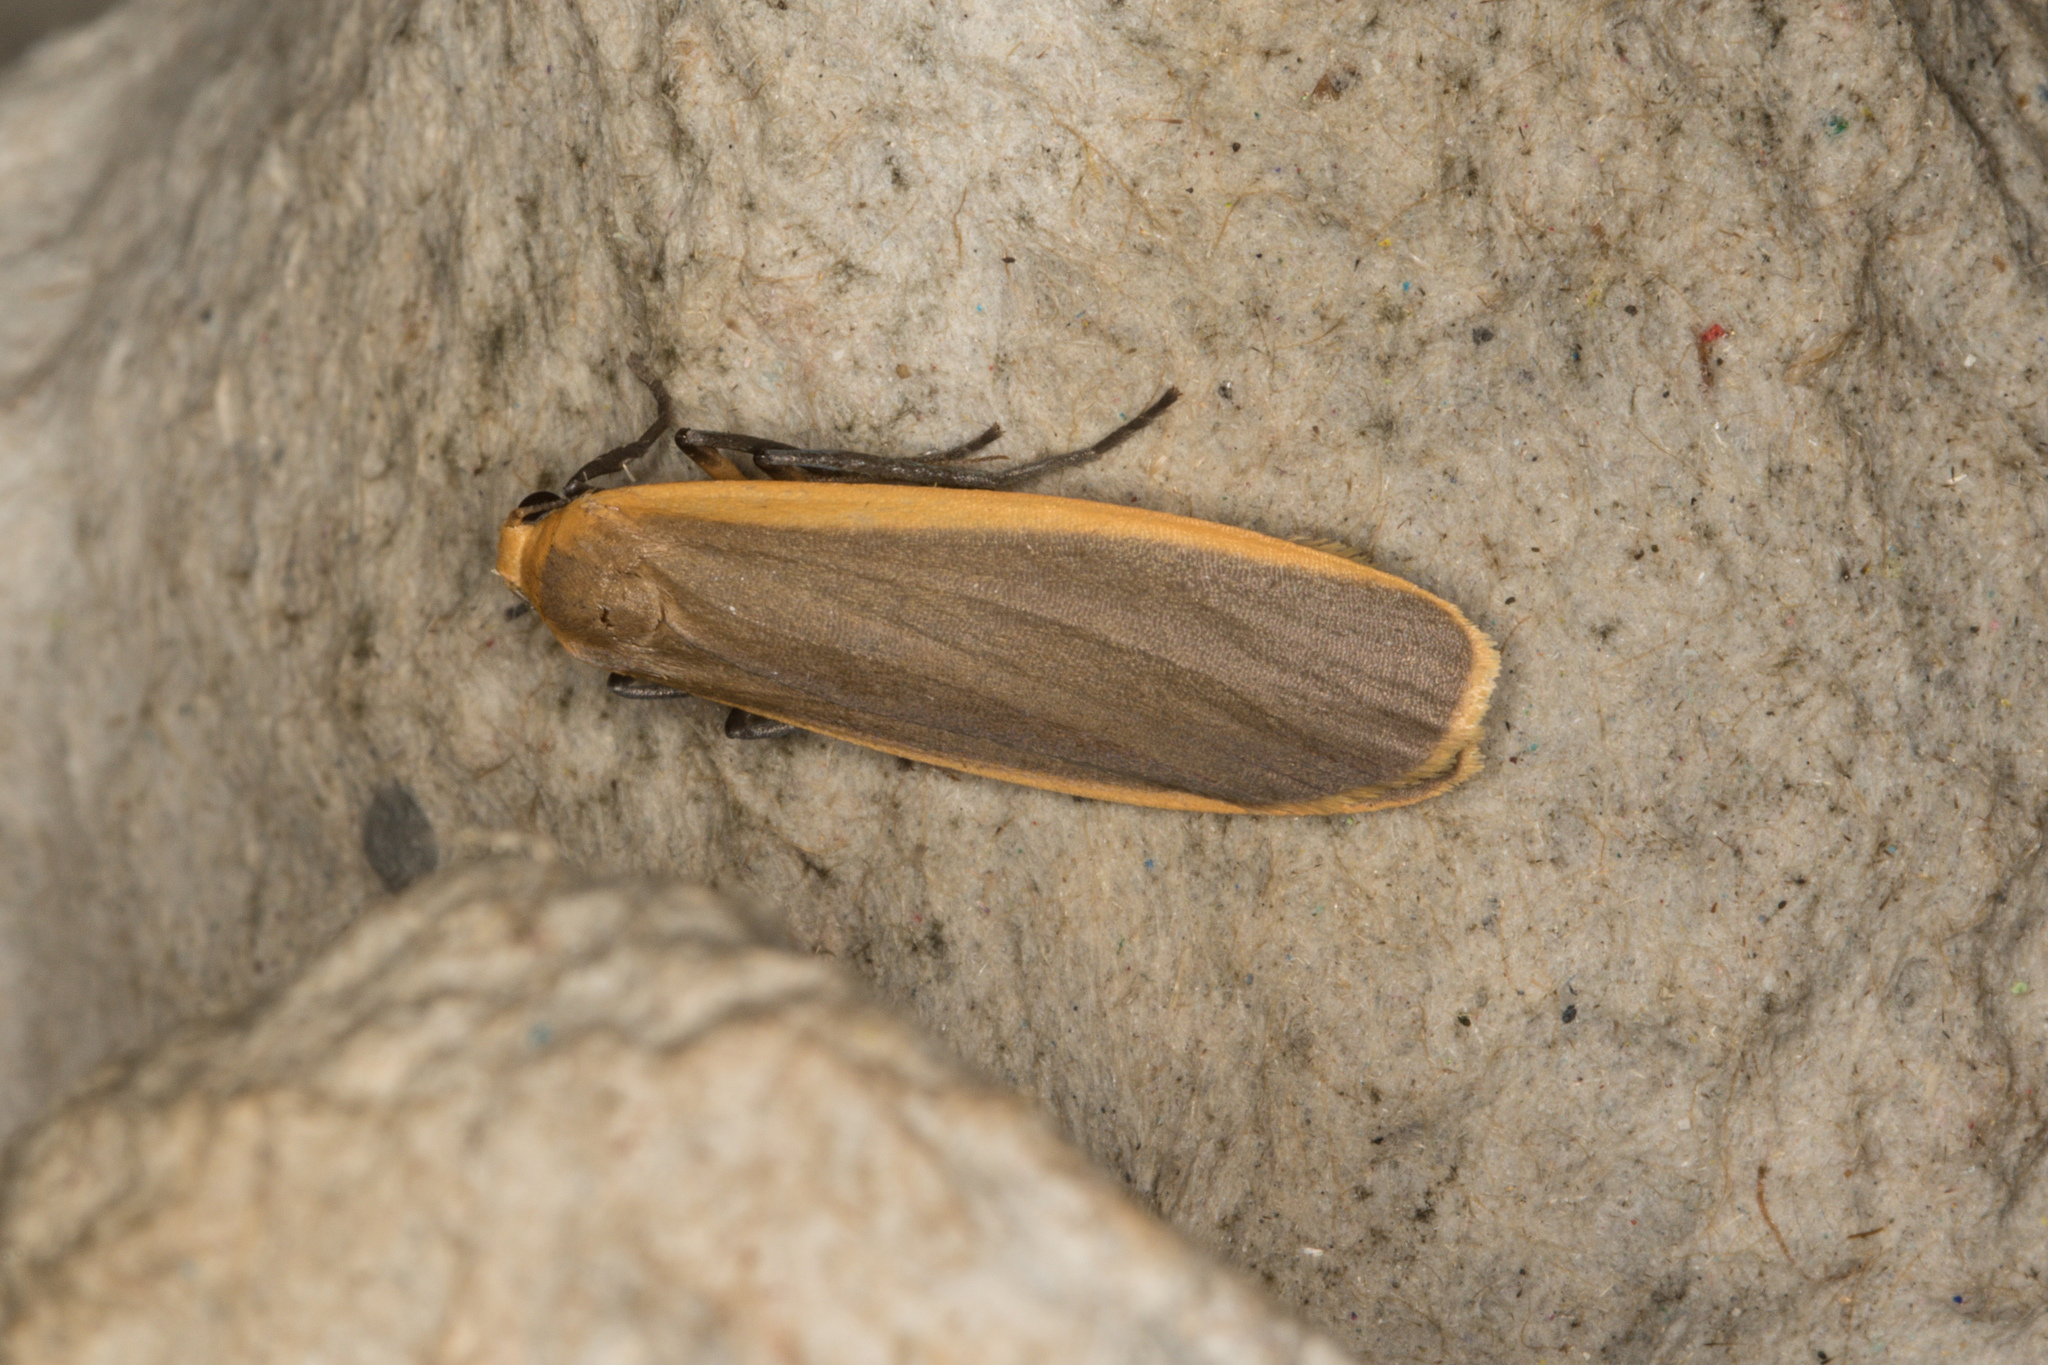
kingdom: Animalia
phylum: Arthropoda
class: Insecta
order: Lepidoptera
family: Erebidae
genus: Nyea
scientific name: Nyea lurideola
